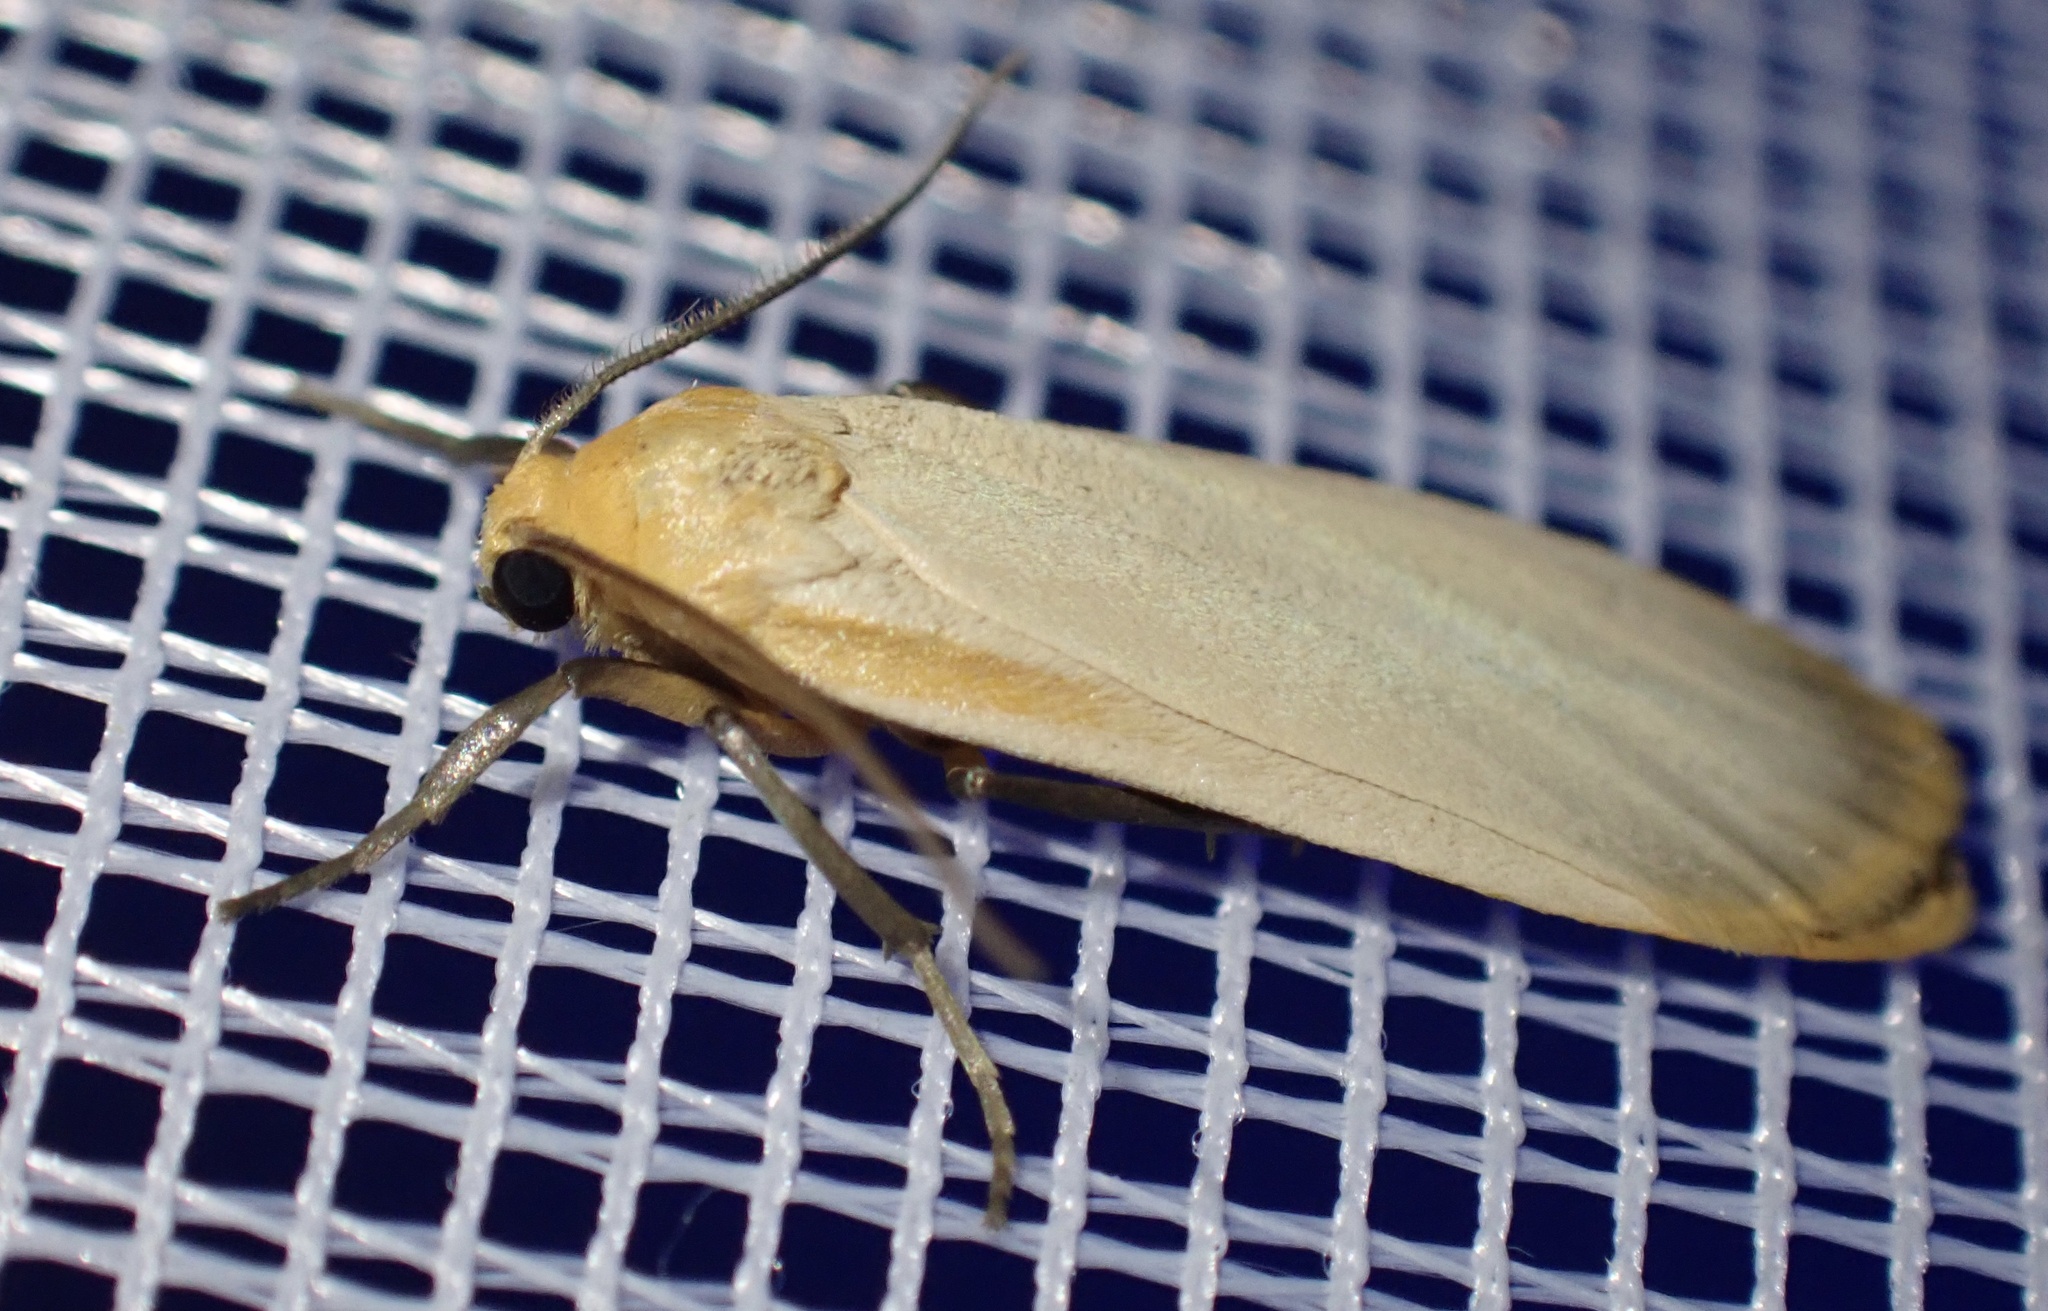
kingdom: Animalia
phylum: Arthropoda
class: Insecta
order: Lepidoptera
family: Erebidae
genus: Katha
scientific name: Katha depressa
